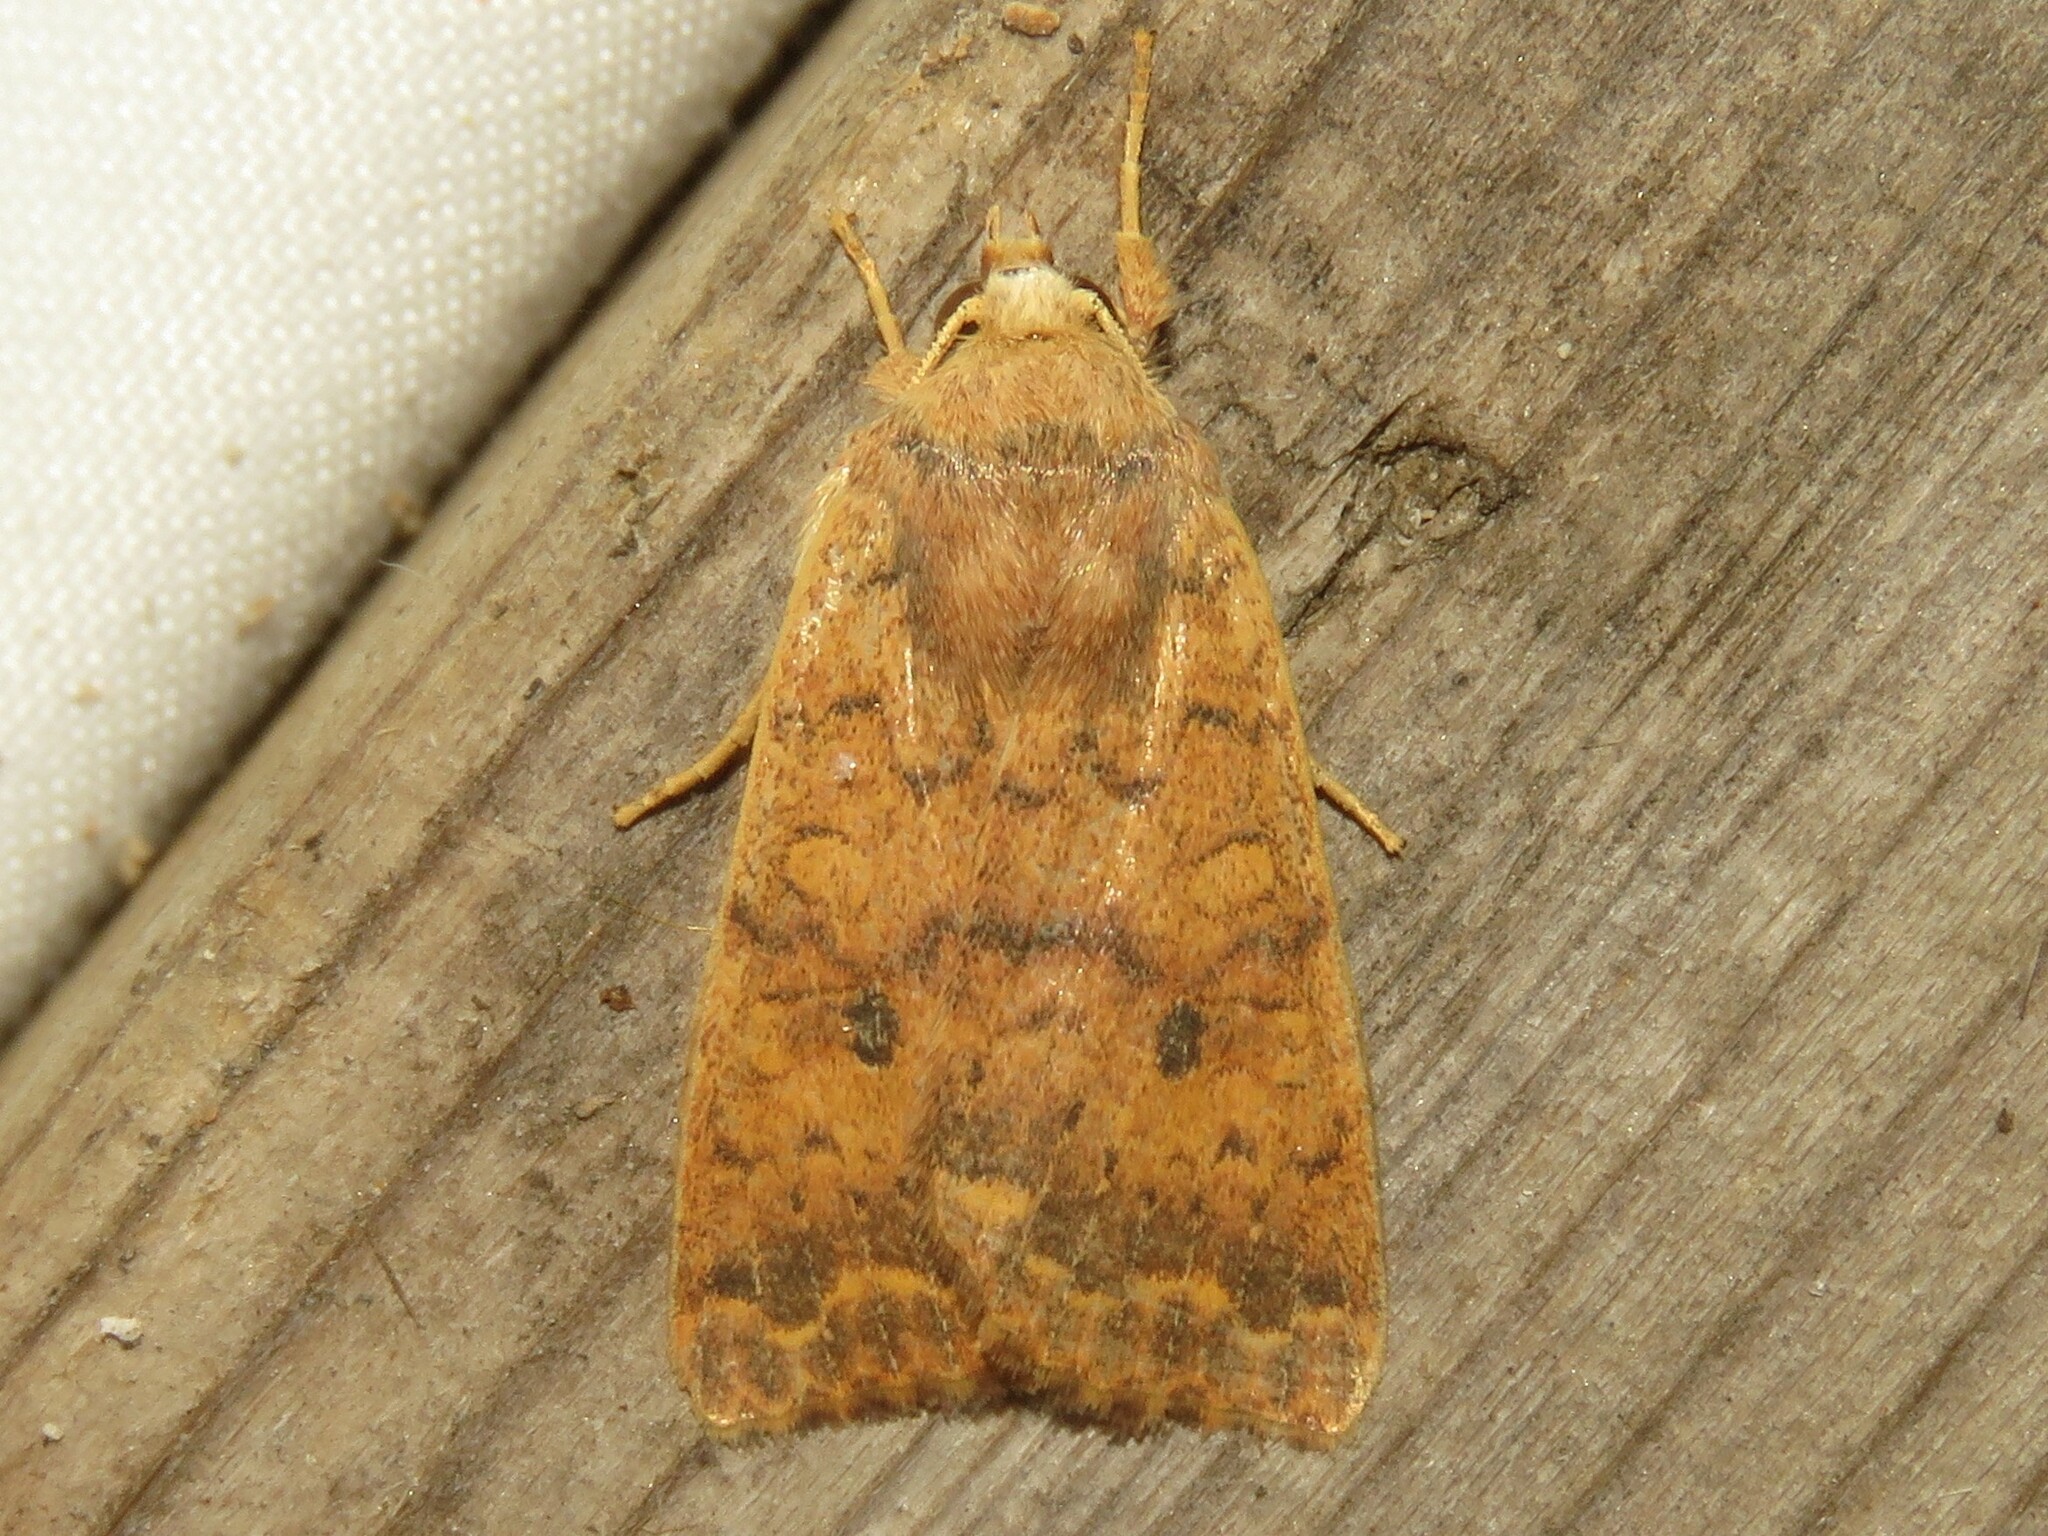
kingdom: Animalia
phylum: Arthropoda
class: Insecta
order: Lepidoptera
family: Noctuidae
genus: Agrochola
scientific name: Agrochola bicolorago
